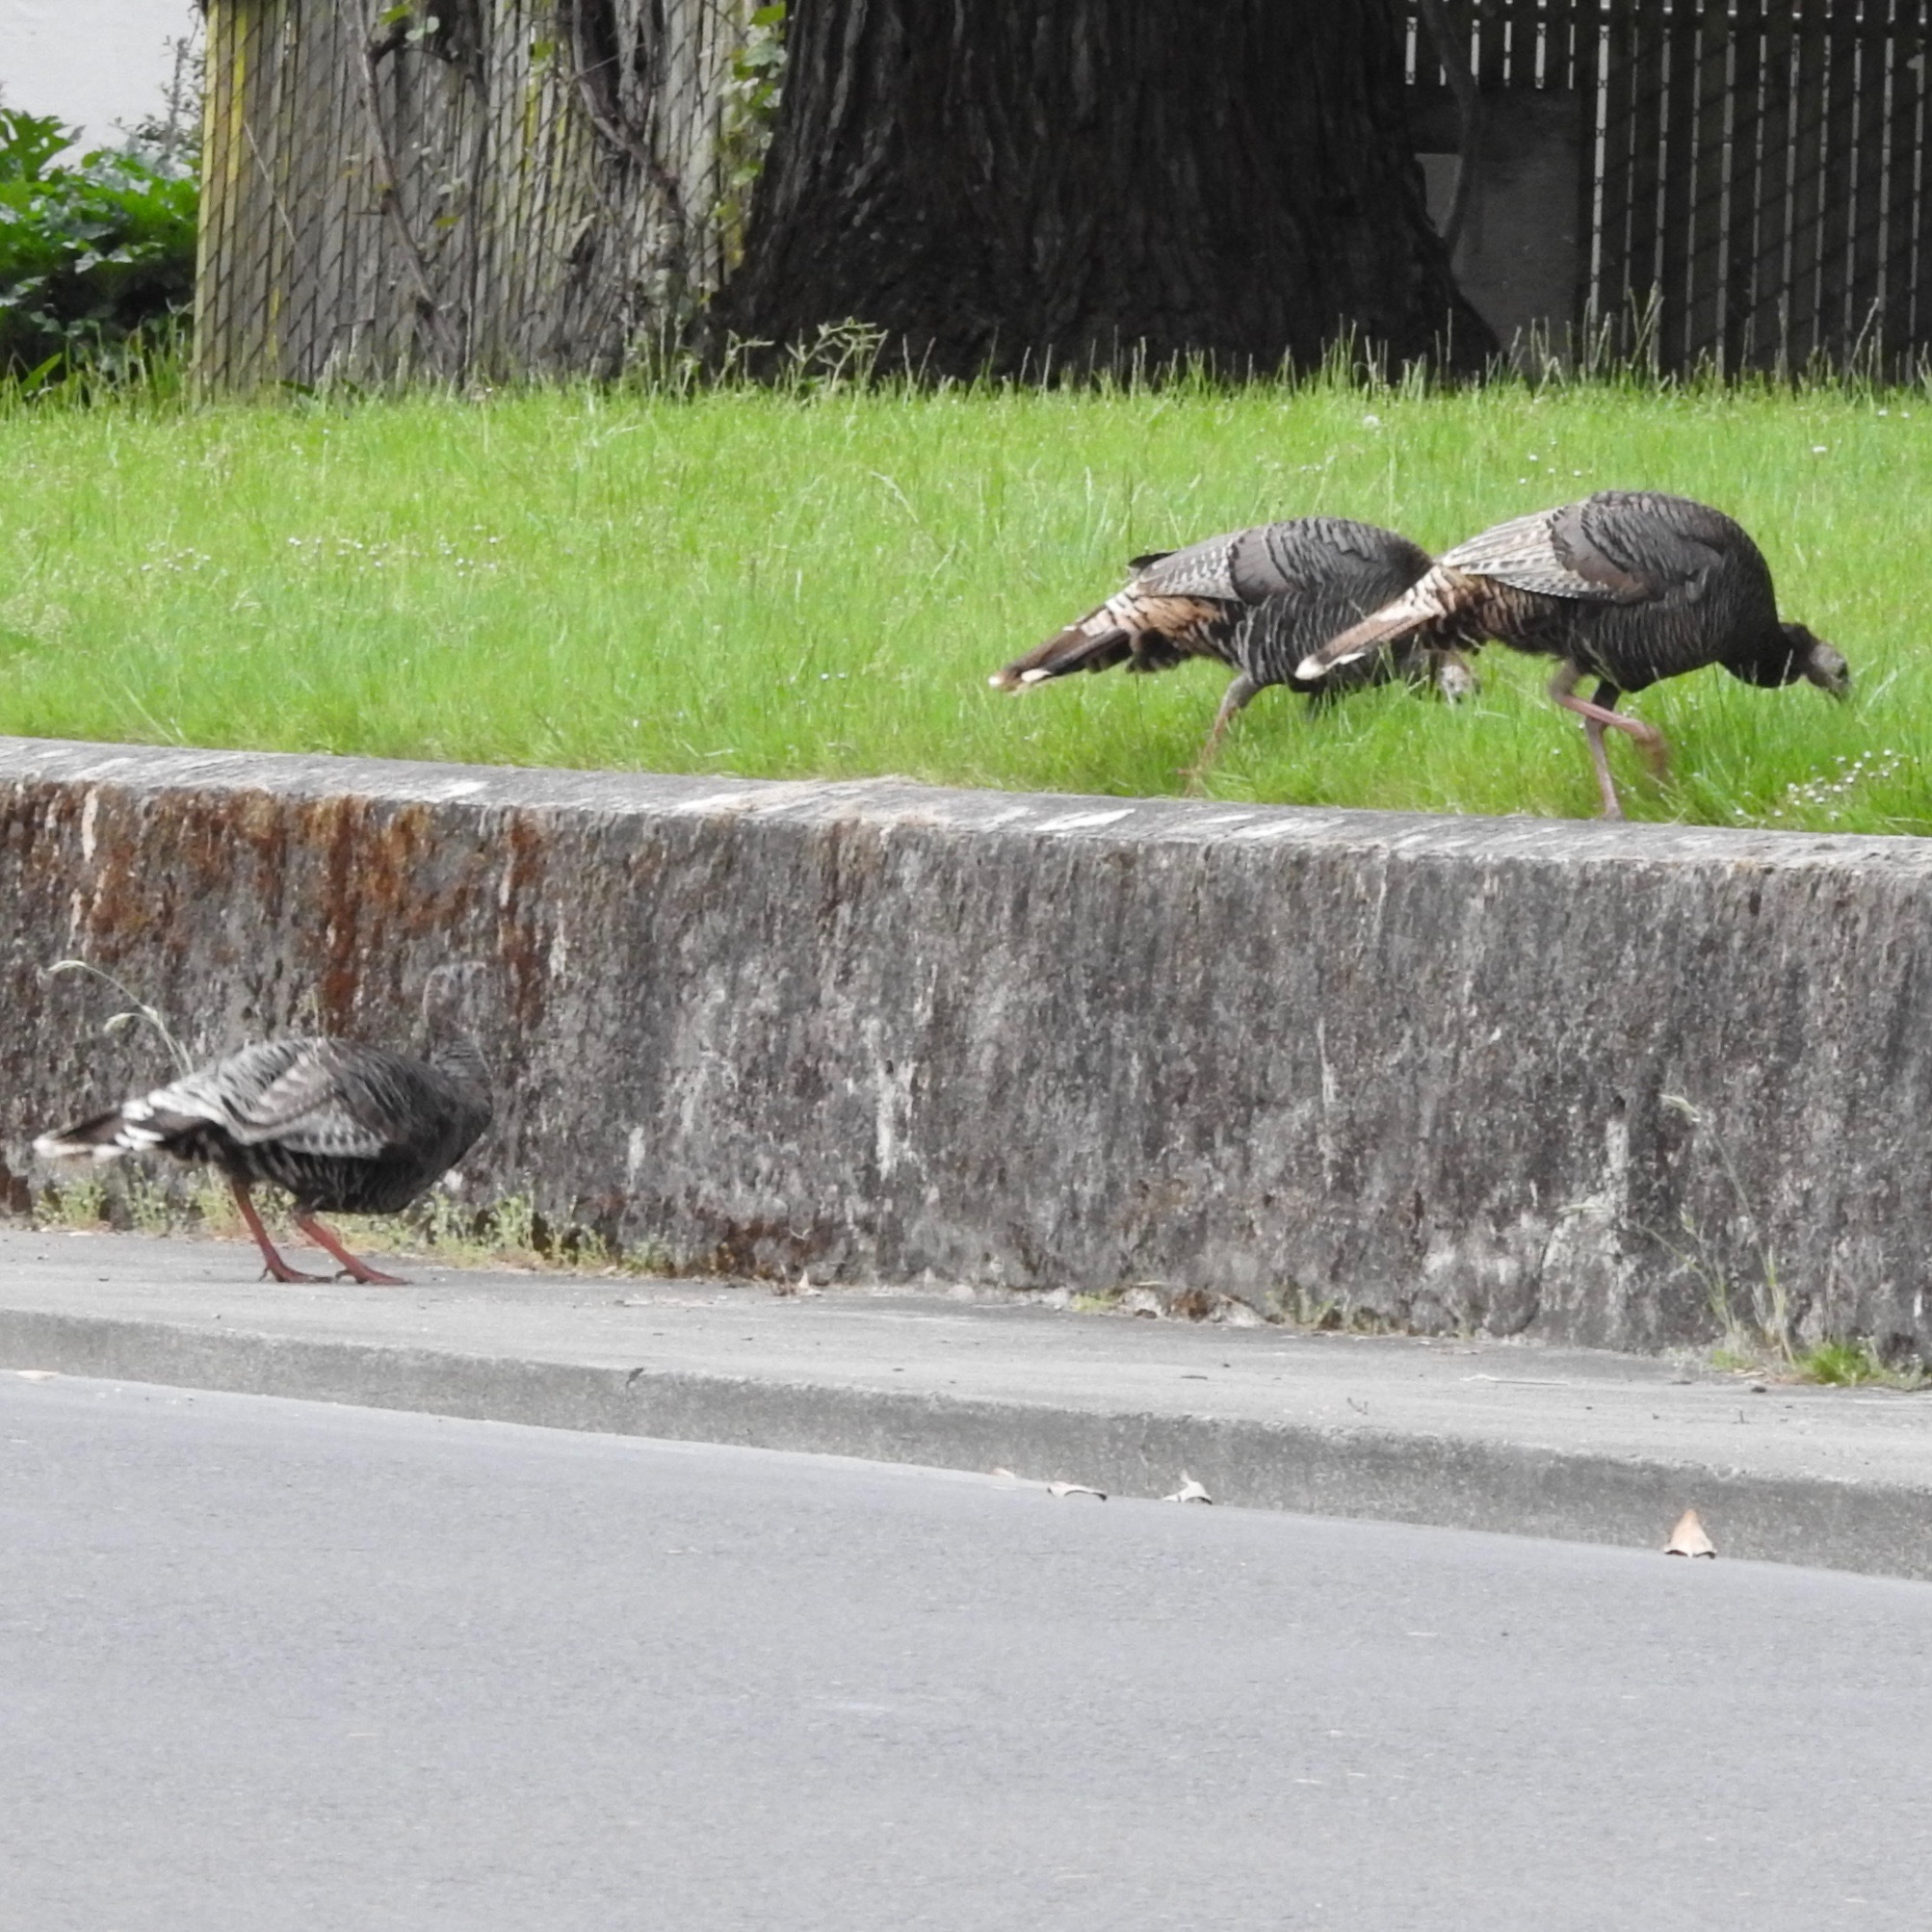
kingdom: Animalia
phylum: Chordata
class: Aves
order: Galliformes
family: Phasianidae
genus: Meleagris
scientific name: Meleagris gallopavo
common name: Wild turkey
